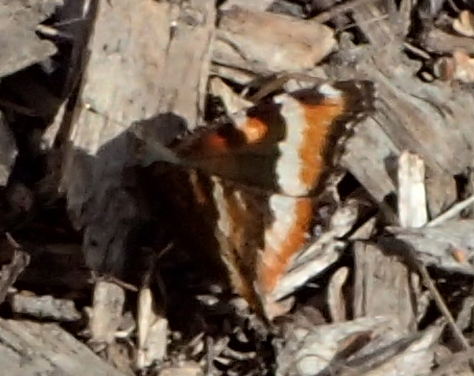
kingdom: Animalia
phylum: Arthropoda
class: Insecta
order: Lepidoptera
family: Nymphalidae
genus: Aglais
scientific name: Aglais milberti
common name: Milbert's tortoiseshell
